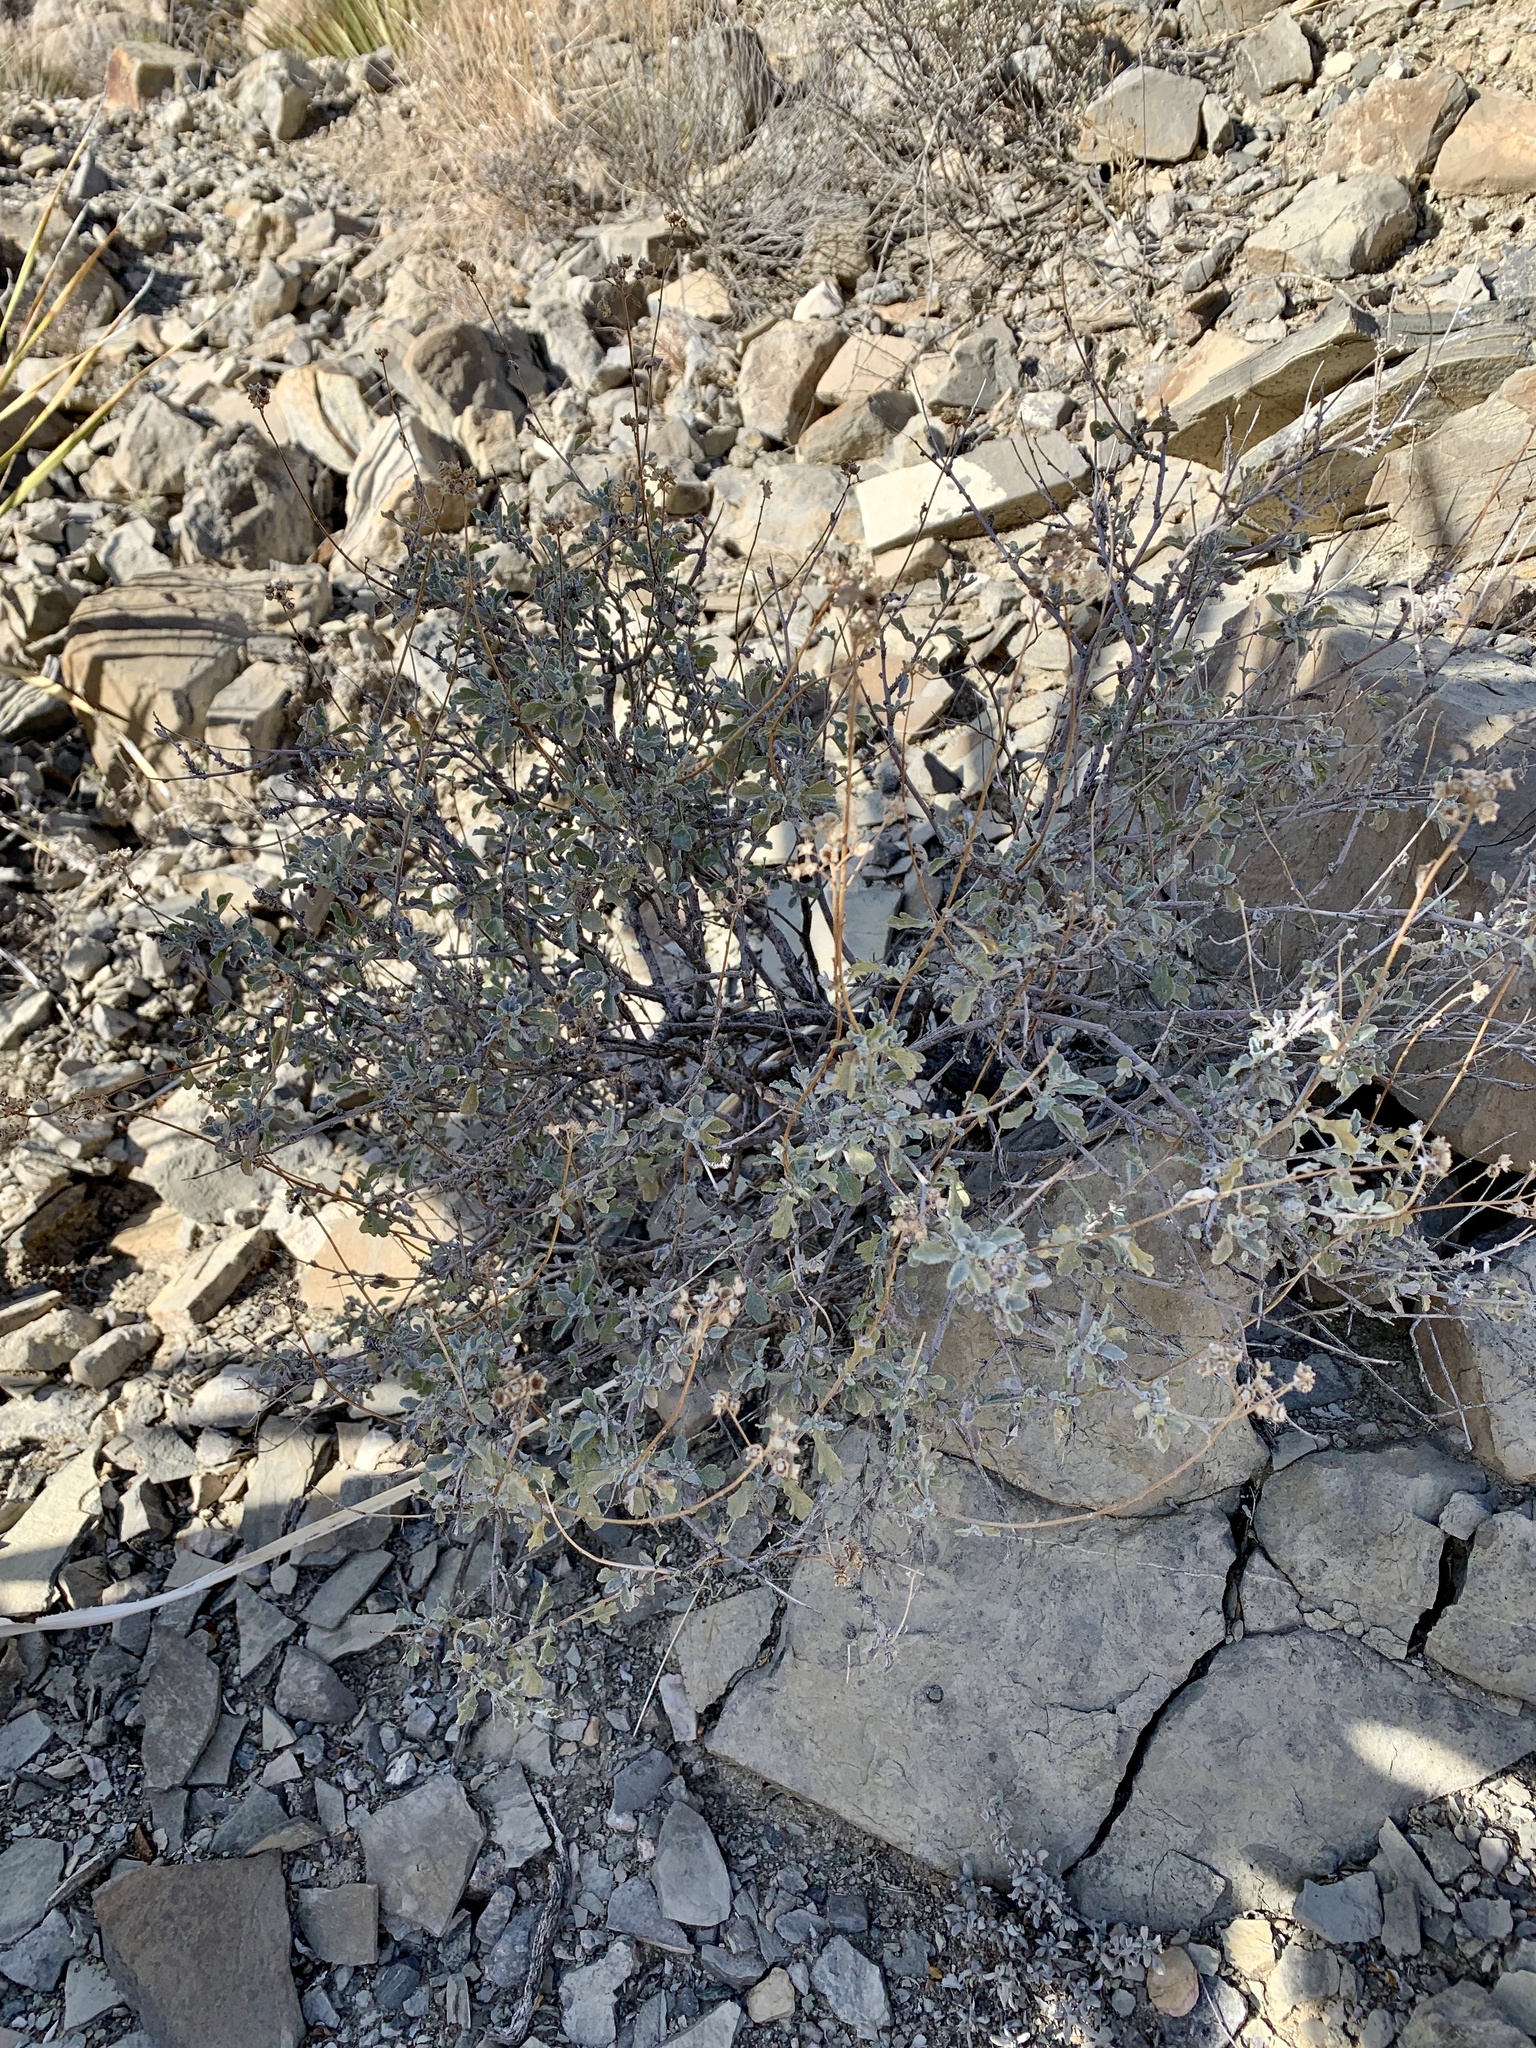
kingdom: Plantae
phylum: Tracheophyta
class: Magnoliopsida
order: Asterales
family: Asteraceae
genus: Parthenium
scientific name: Parthenium incanum
